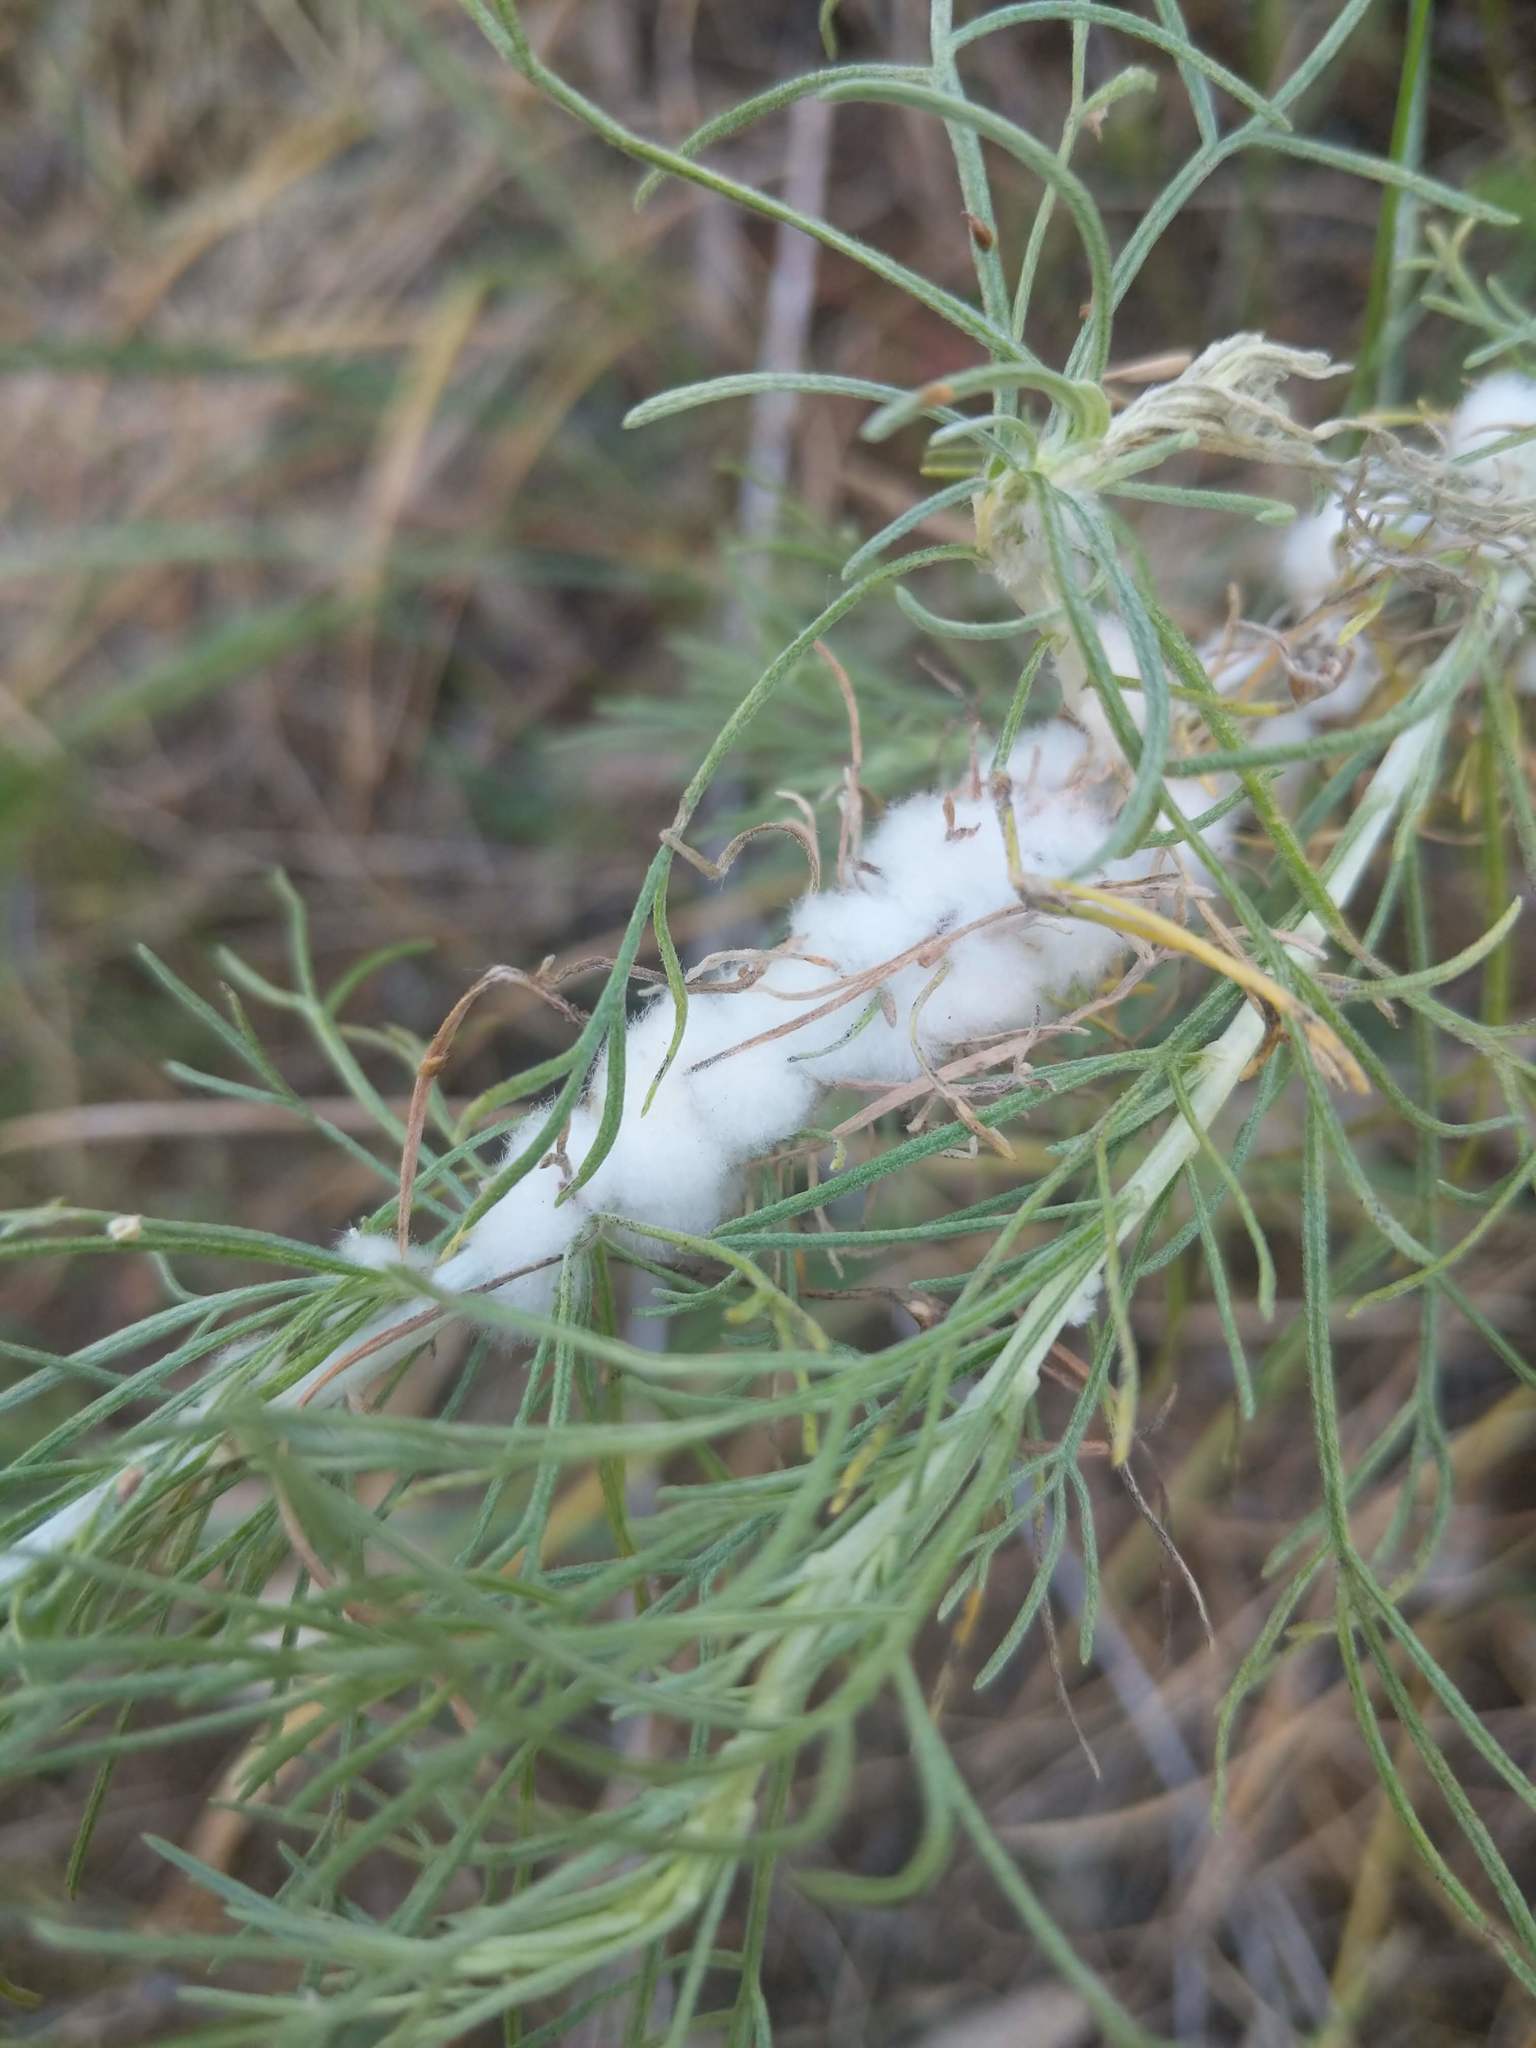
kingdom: Animalia
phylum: Arthropoda
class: Insecta
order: Diptera
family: Cecidomyiidae
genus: Rhopalomyia
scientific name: Rhopalomyia floccosa
